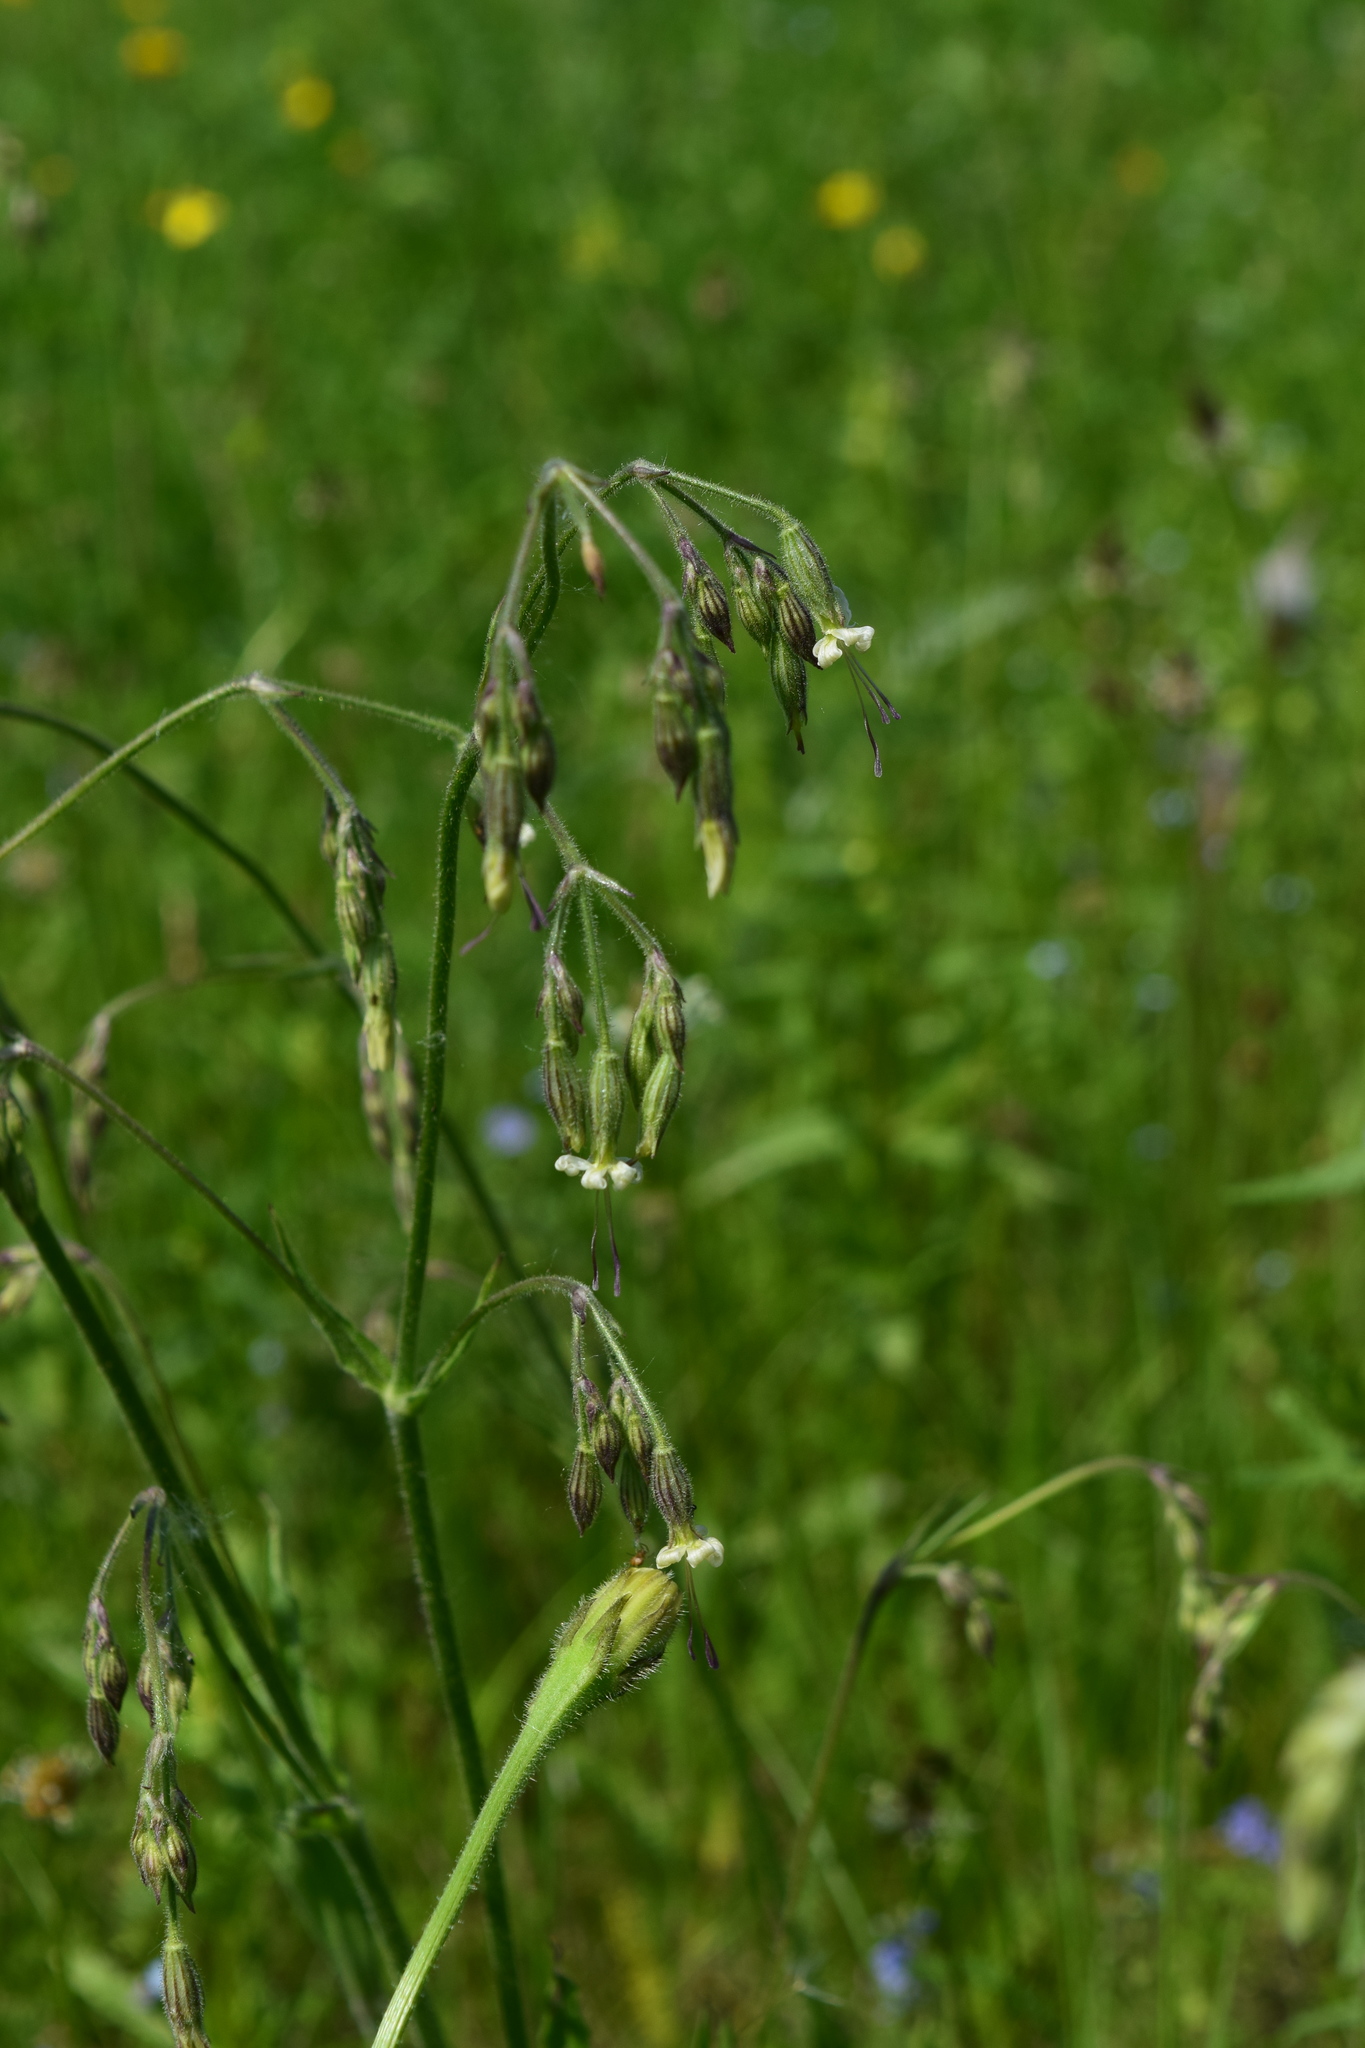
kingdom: Plantae
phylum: Tracheophyta
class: Magnoliopsida
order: Caryophyllales
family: Caryophyllaceae
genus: Silene
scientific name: Silene nutans
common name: Nottingham catchfly
